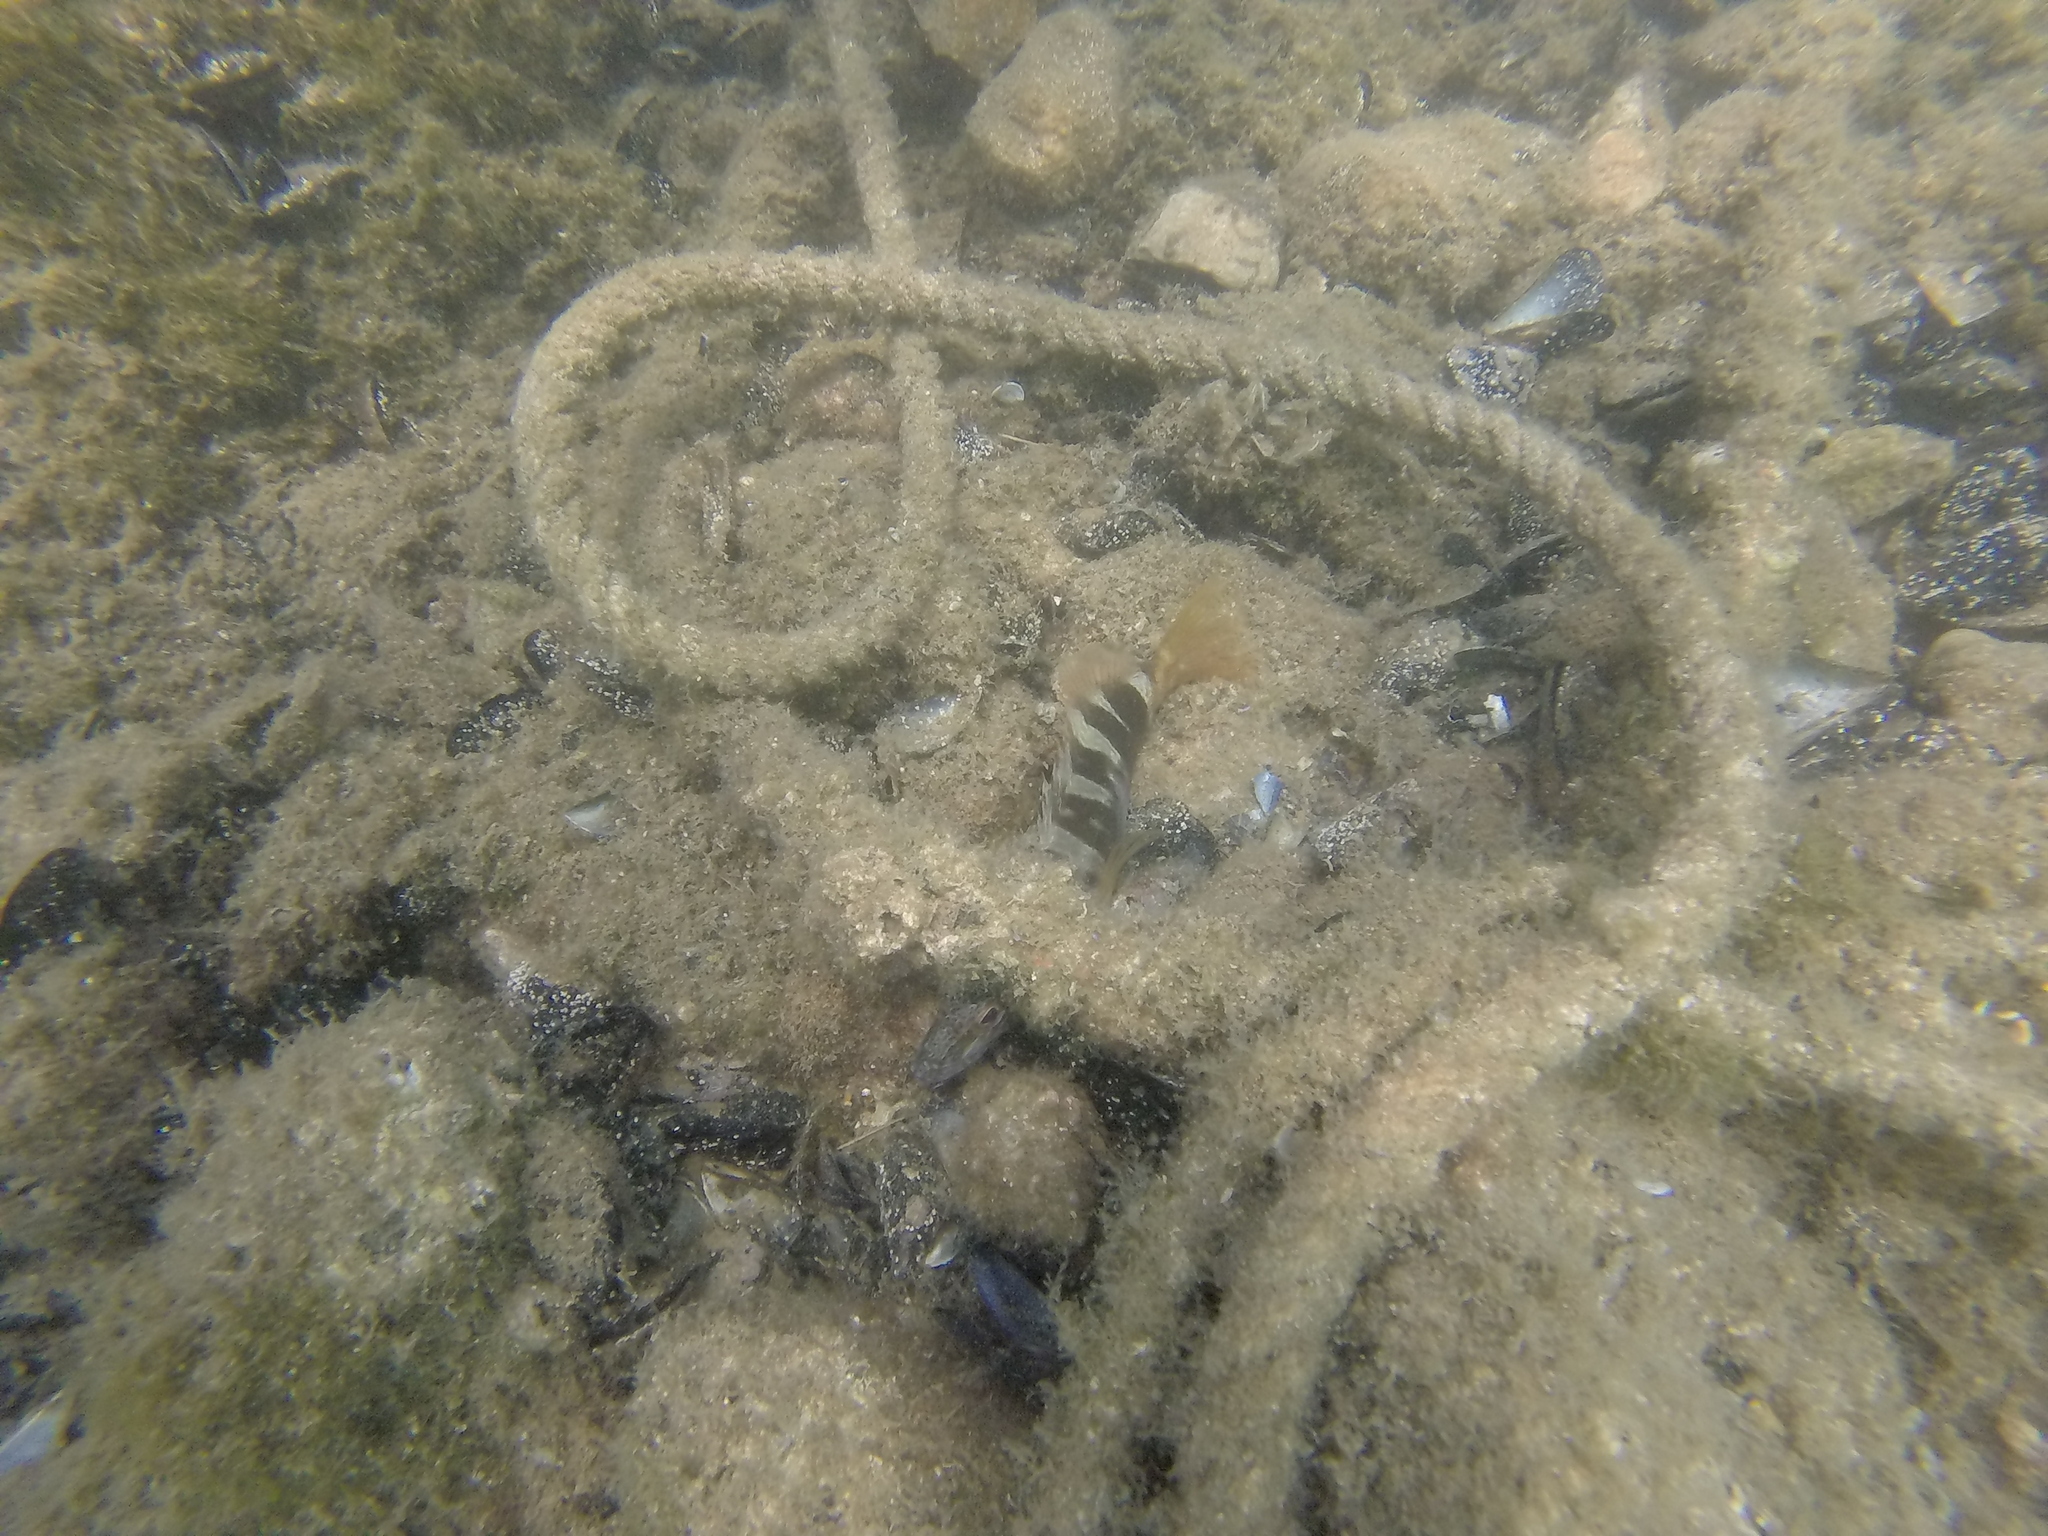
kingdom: Animalia
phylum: Chordata
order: Perciformes
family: Serranidae
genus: Serranus
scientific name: Serranus scriba
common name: Painted comber
